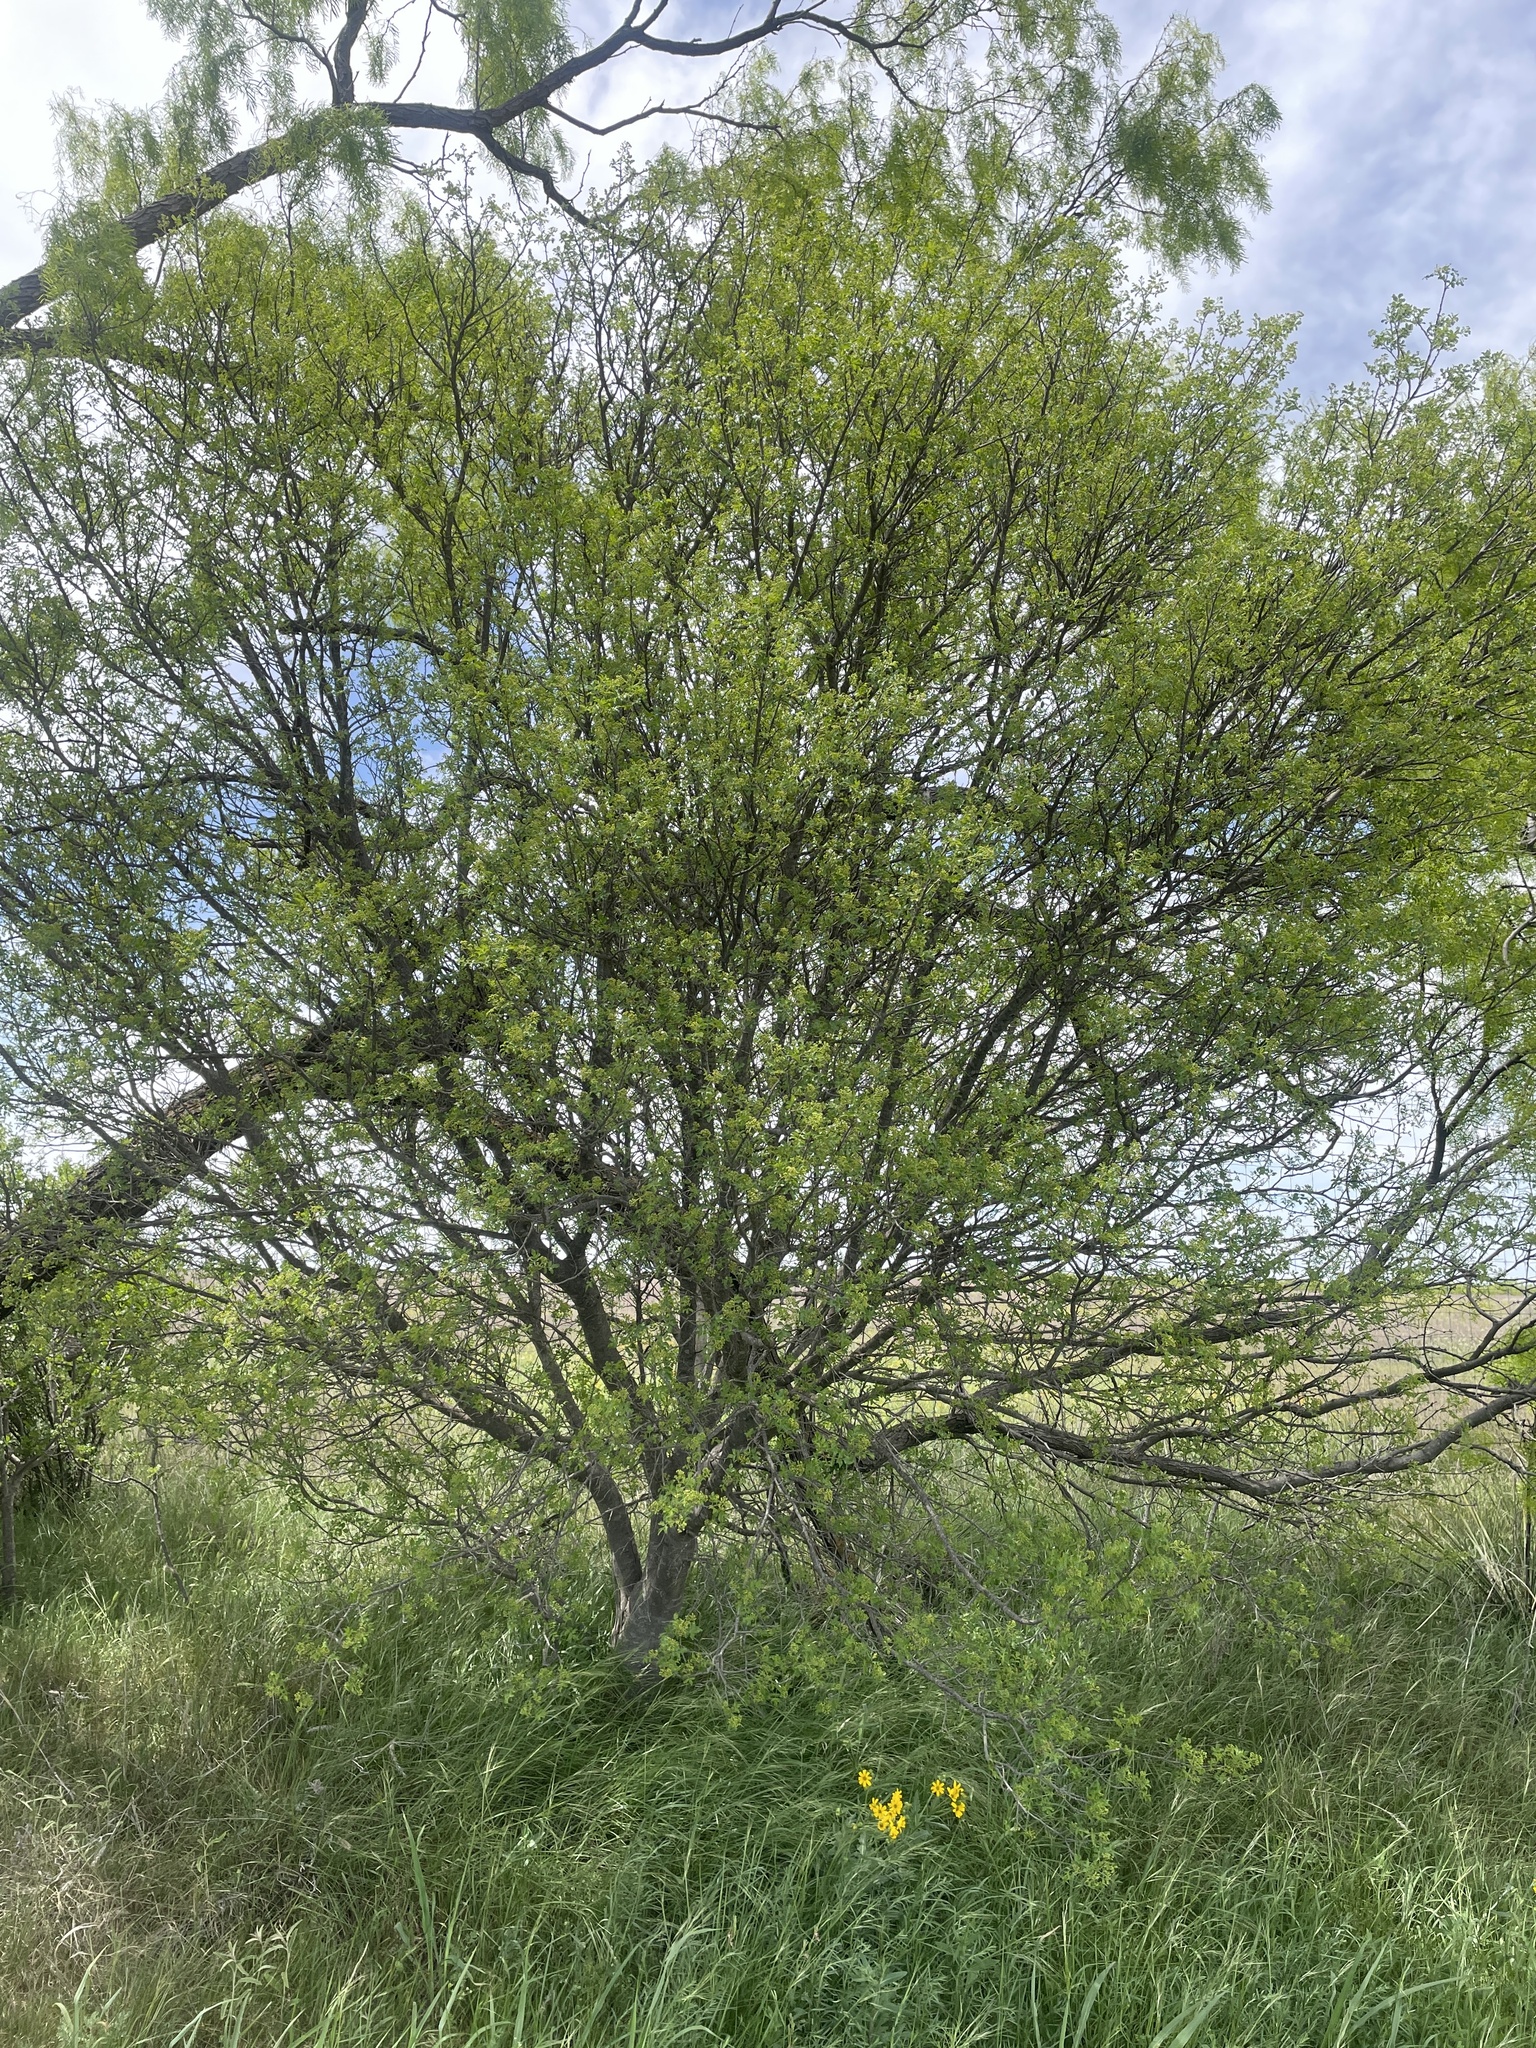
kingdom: Plantae
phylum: Tracheophyta
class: Magnoliopsida
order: Sapindales
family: Rutaceae
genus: Zanthoxylum
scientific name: Zanthoxylum clava-herculis
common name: Hercules'-club
